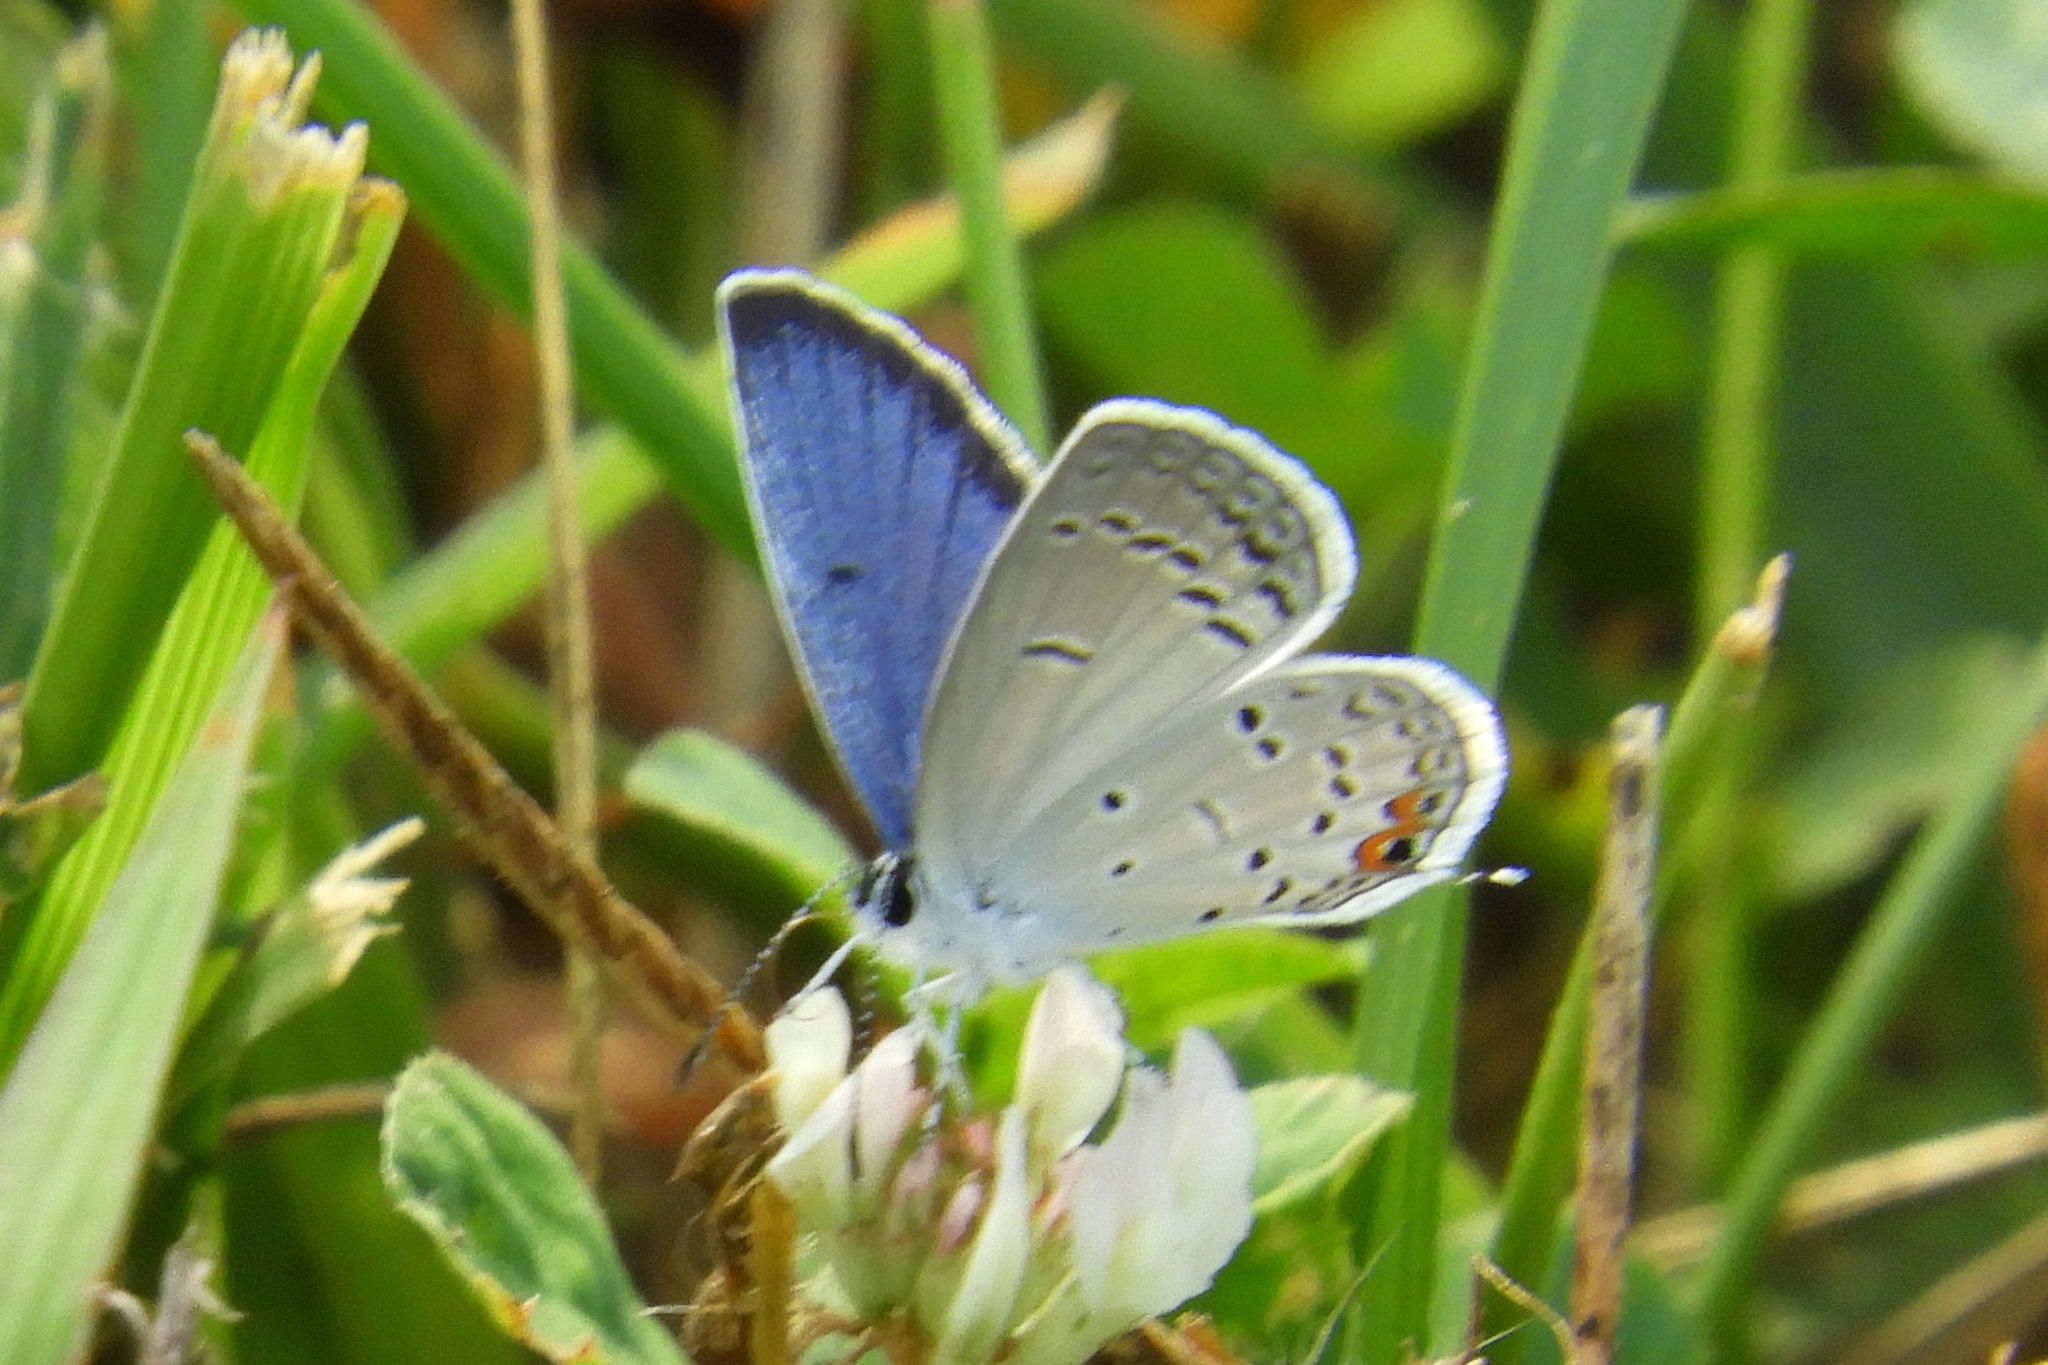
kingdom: Animalia
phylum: Arthropoda
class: Insecta
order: Lepidoptera
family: Lycaenidae
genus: Elkalyce
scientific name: Elkalyce comyntas
